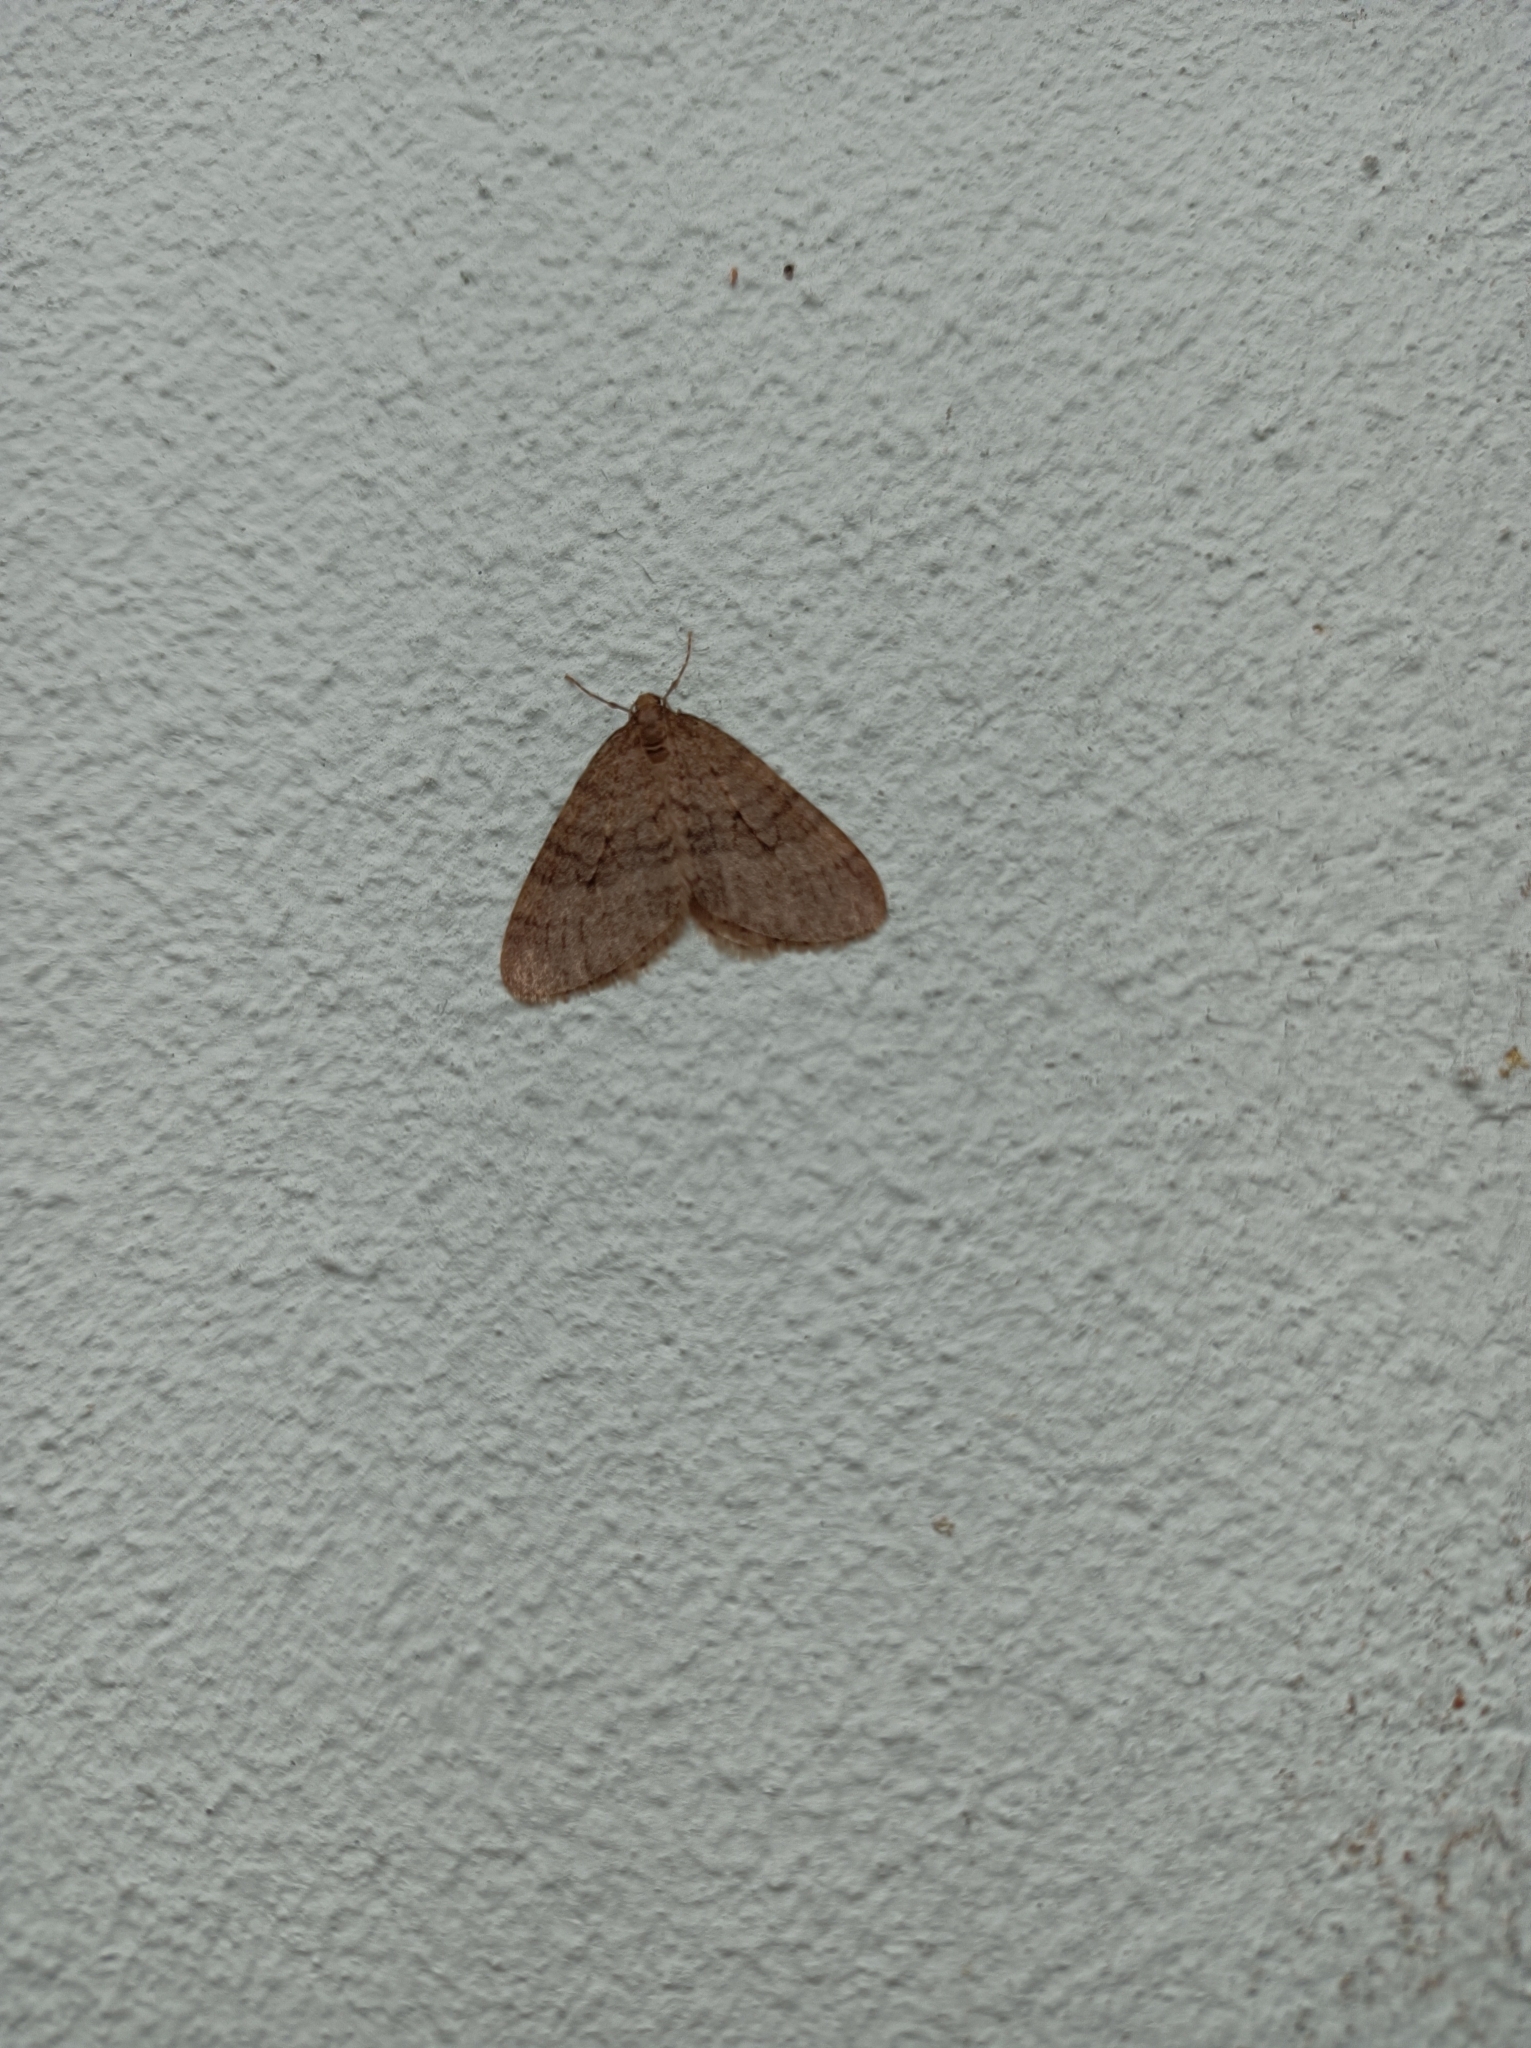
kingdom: Animalia
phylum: Arthropoda
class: Insecta
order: Lepidoptera
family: Geometridae
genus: Operophtera
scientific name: Operophtera brumata
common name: Winter moth
